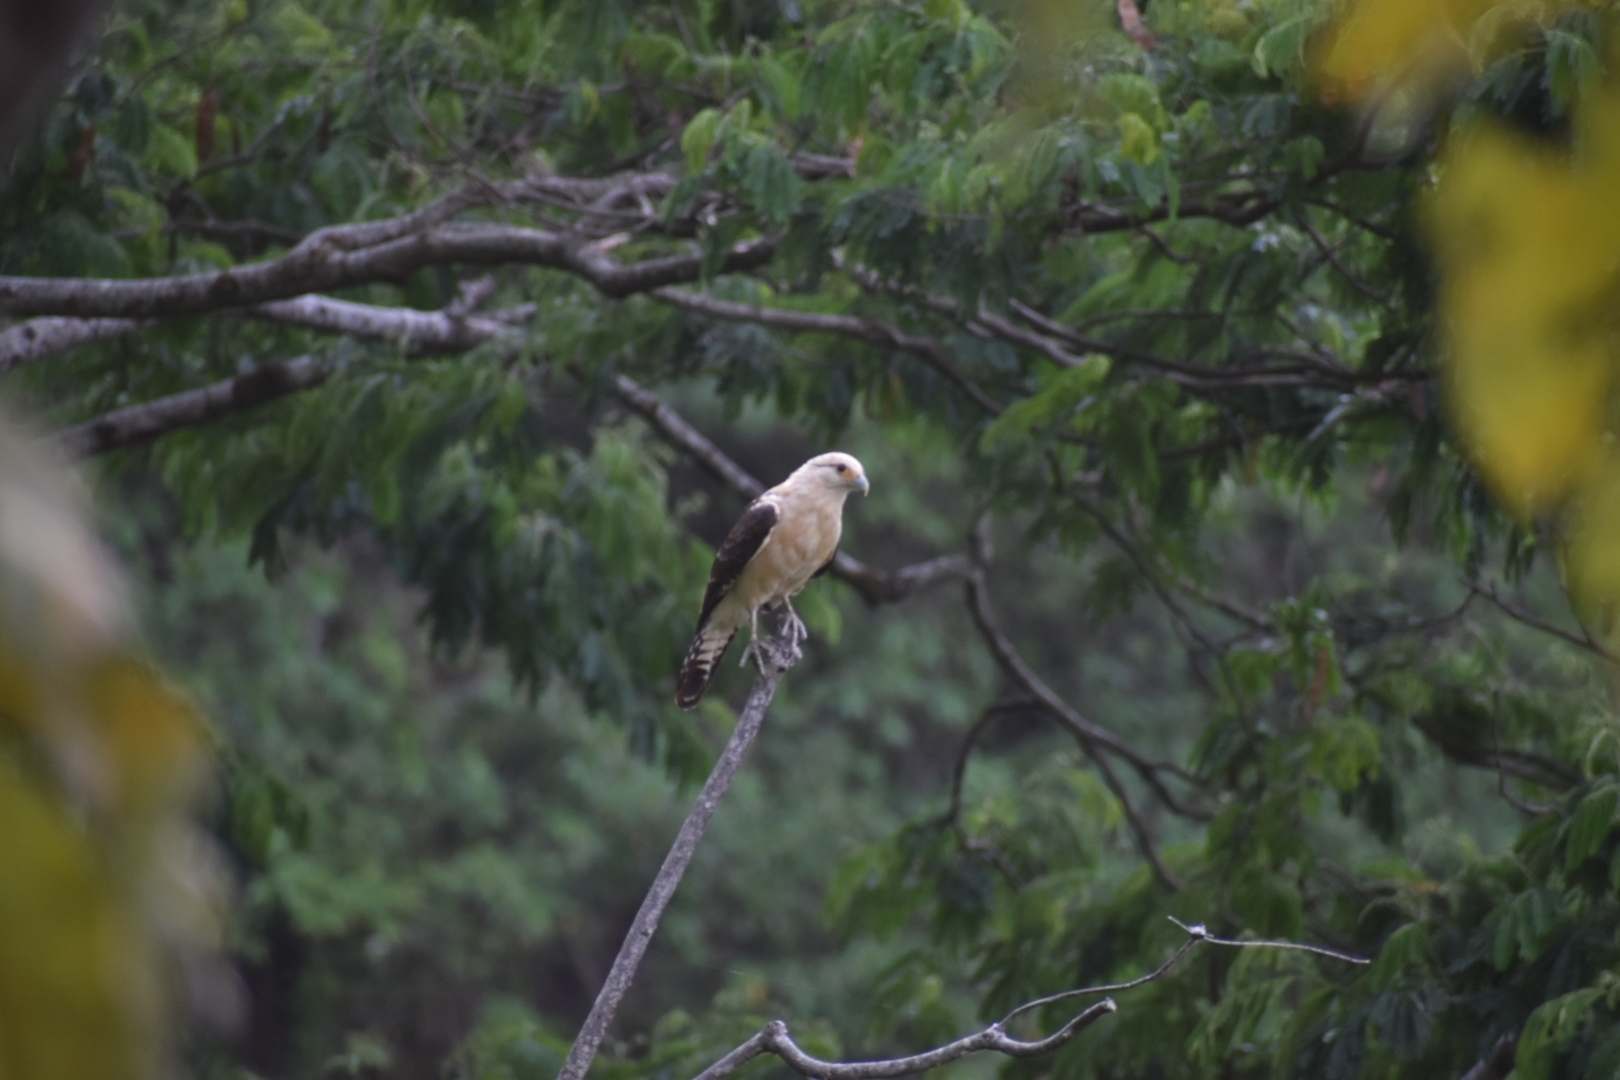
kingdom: Animalia
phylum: Chordata
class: Aves
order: Falconiformes
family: Falconidae
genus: Daptrius
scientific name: Daptrius
